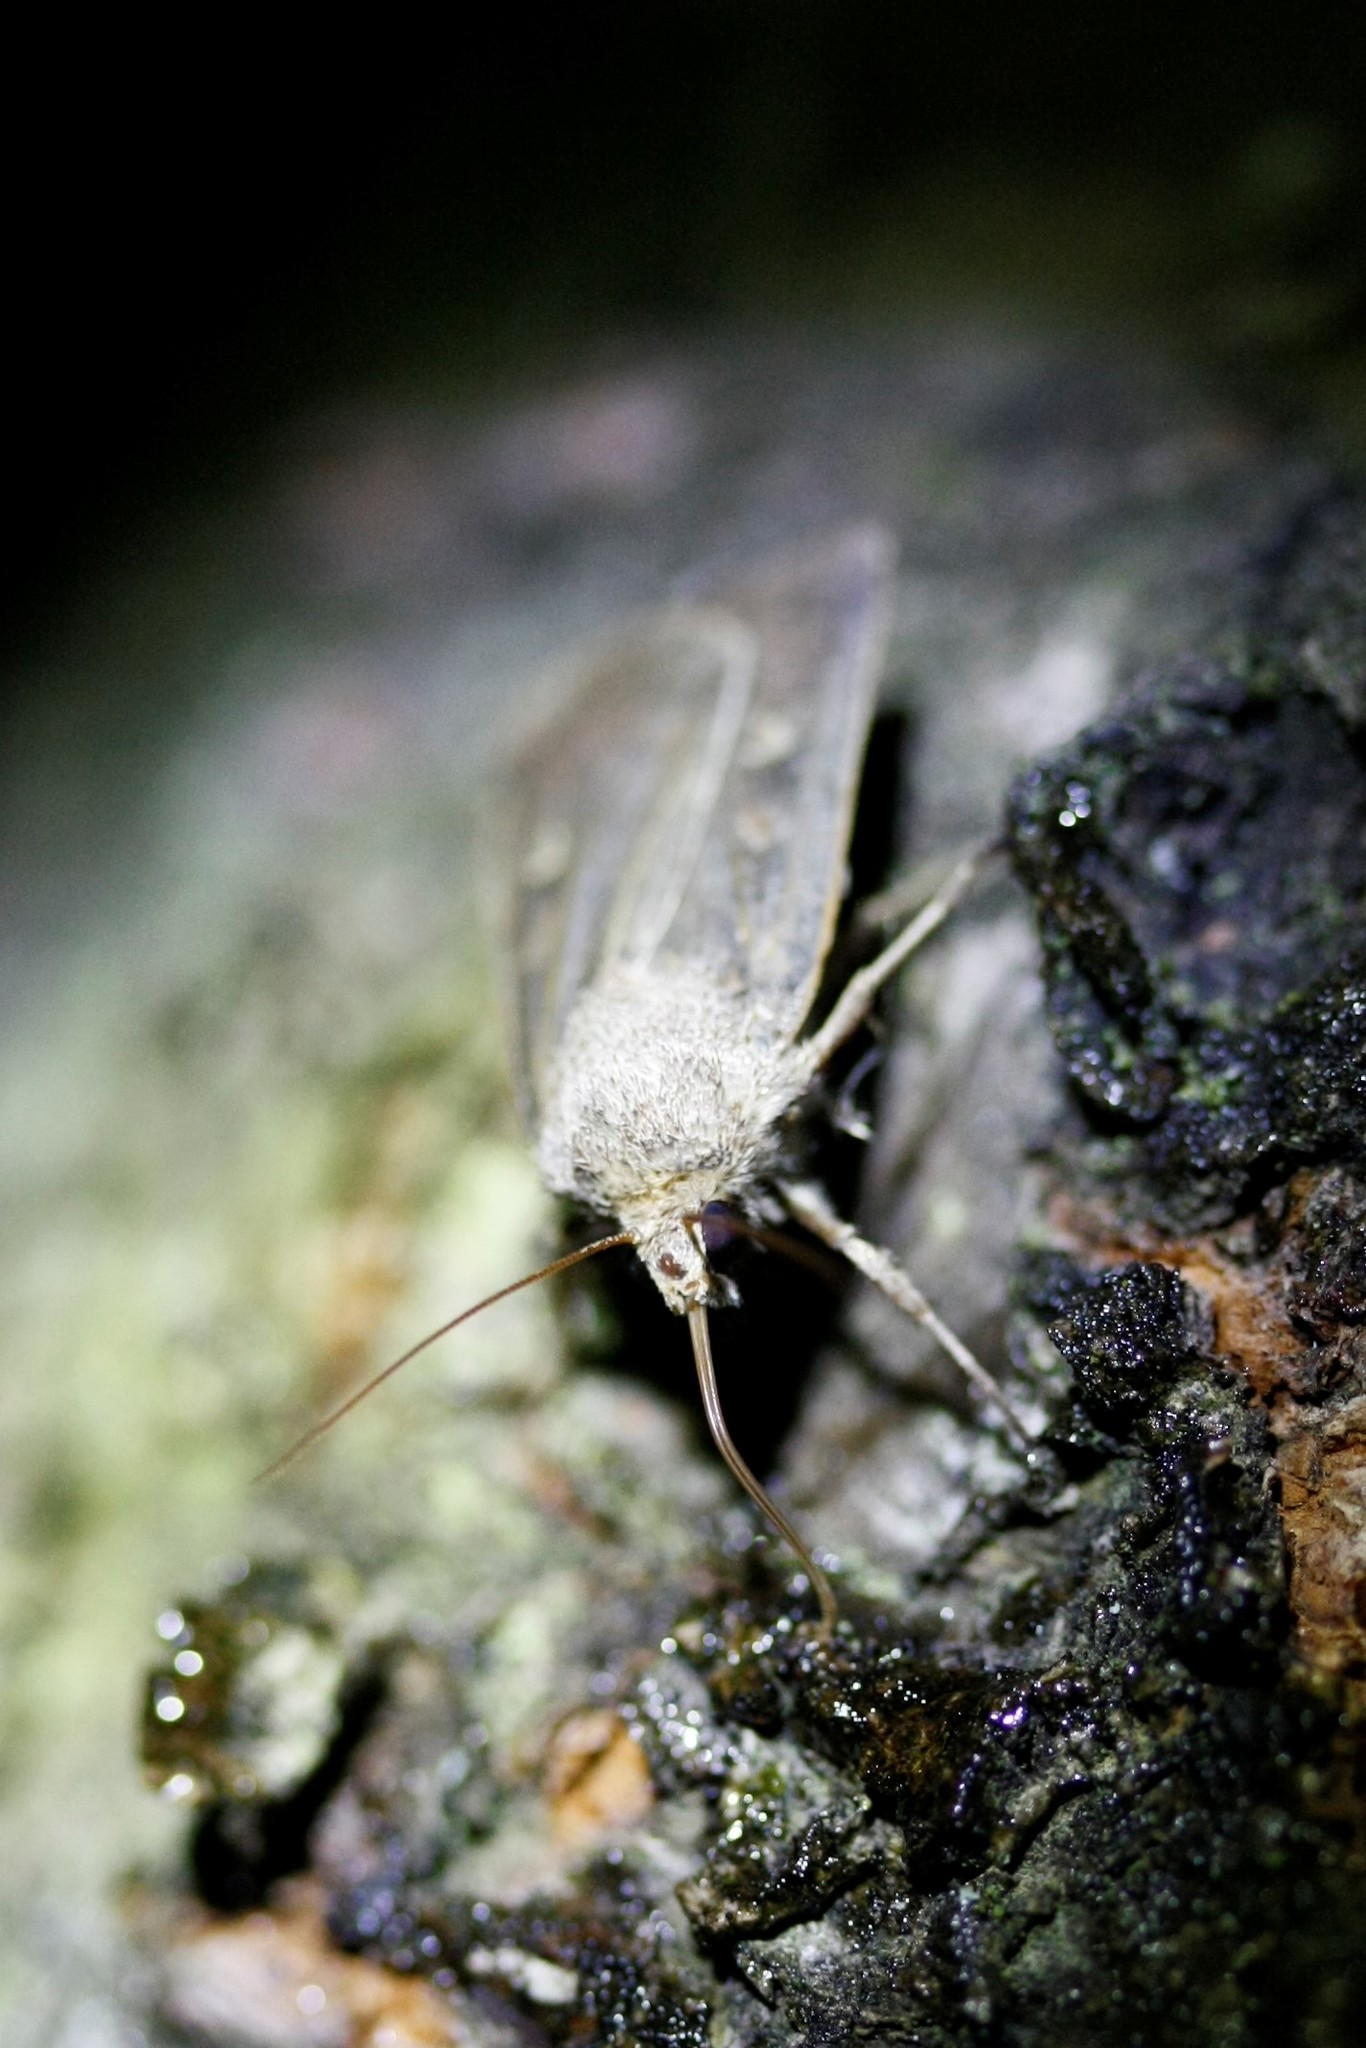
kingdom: Animalia
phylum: Arthropoda
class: Insecta
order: Lepidoptera
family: Noctuidae
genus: Xestia
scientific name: Xestia xanthographa
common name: Square-spot rustic
